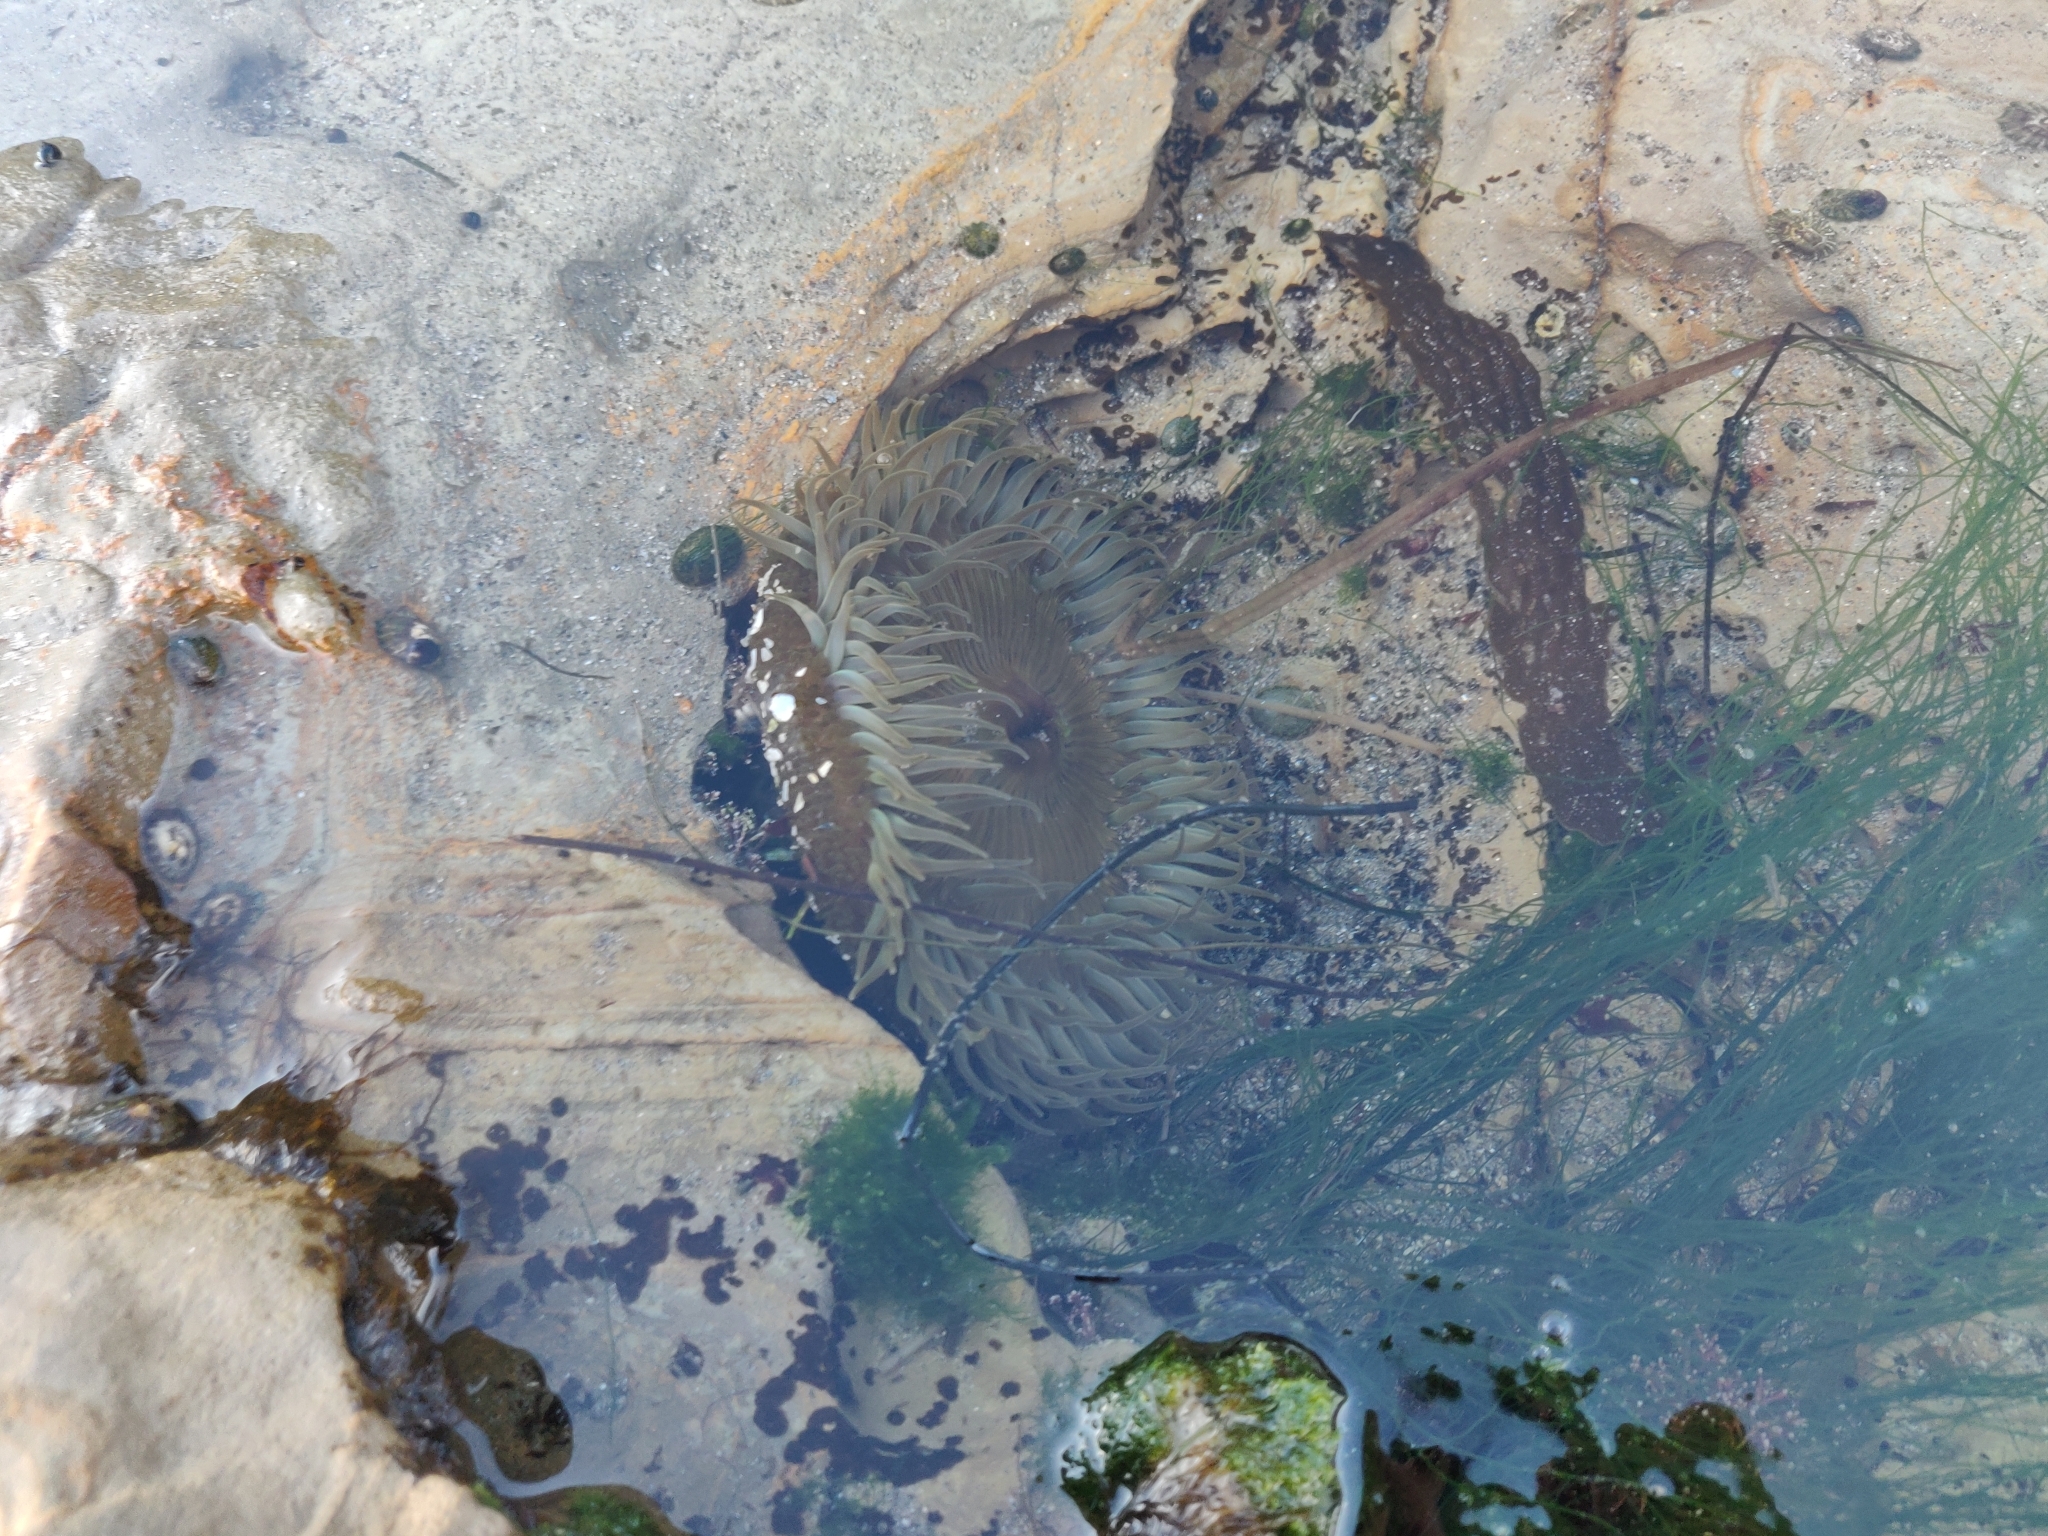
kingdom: Animalia
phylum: Cnidaria
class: Anthozoa
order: Actiniaria
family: Actiniidae
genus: Anthopleura
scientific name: Anthopleura sola
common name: Sun anemone
